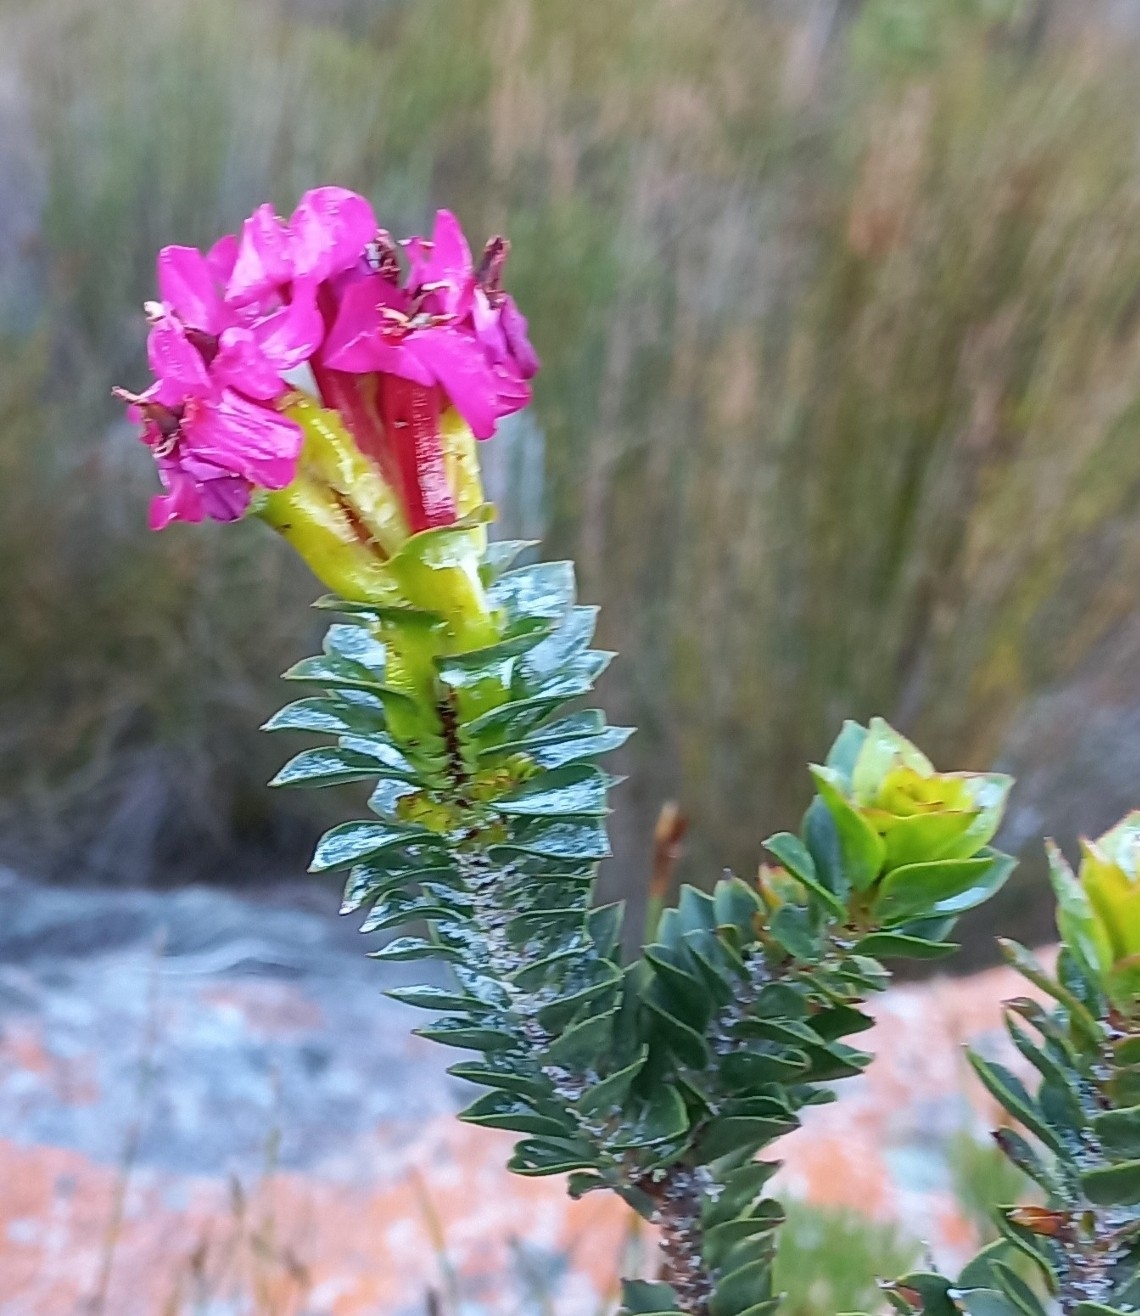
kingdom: Plantae
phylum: Tracheophyta
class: Magnoliopsida
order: Myrtales
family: Penaeaceae
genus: Saltera
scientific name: Saltera sarcocolla
